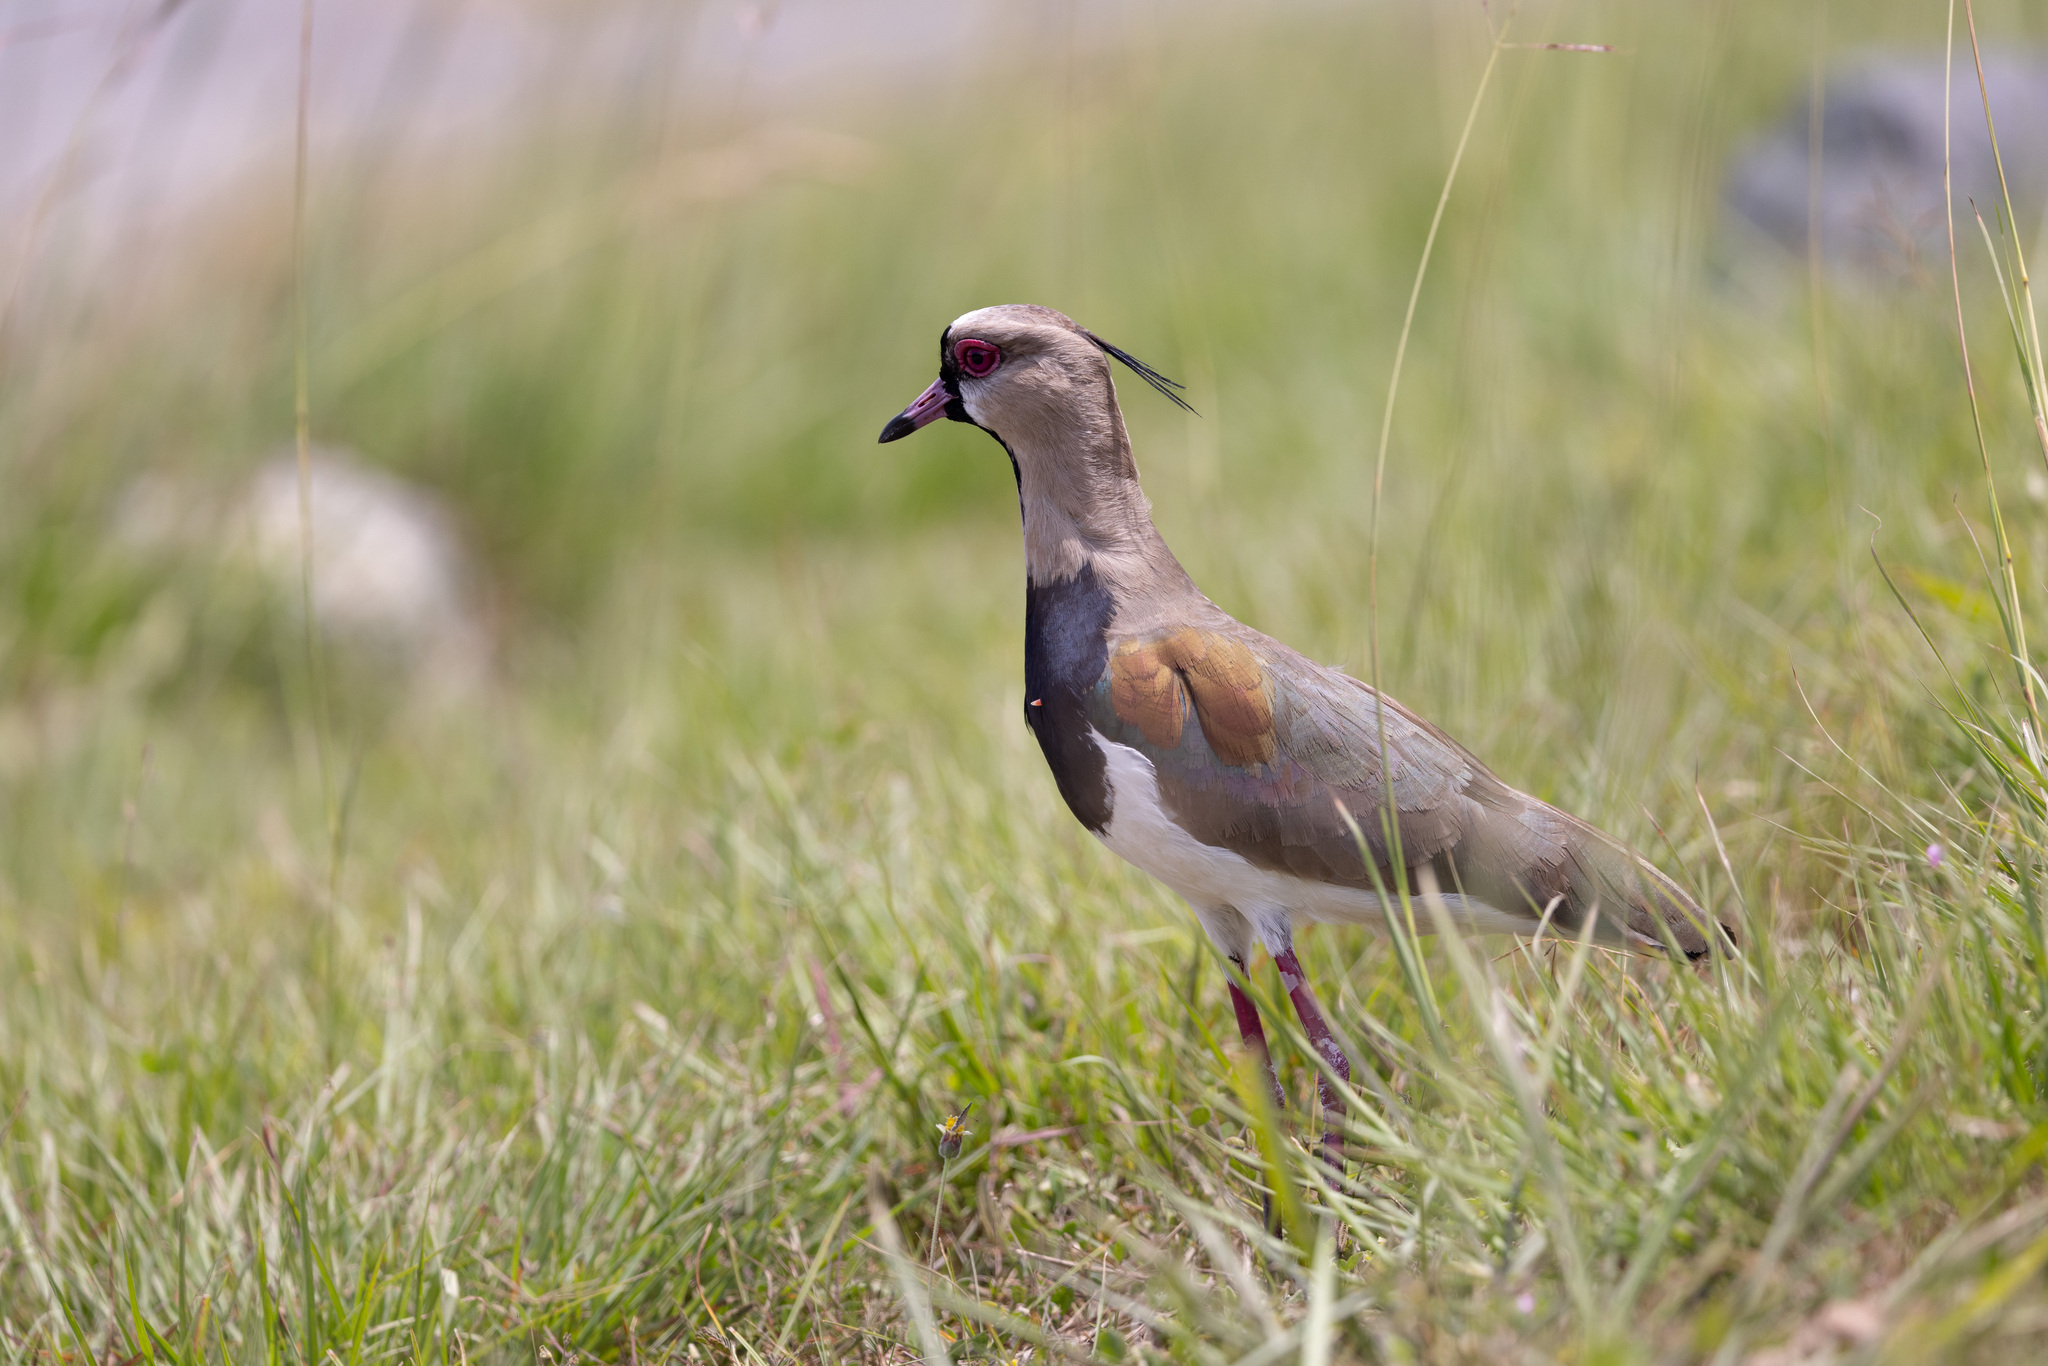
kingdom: Animalia
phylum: Chordata
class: Aves
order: Charadriiformes
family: Charadriidae
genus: Vanellus
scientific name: Vanellus chilensis
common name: Southern lapwing
